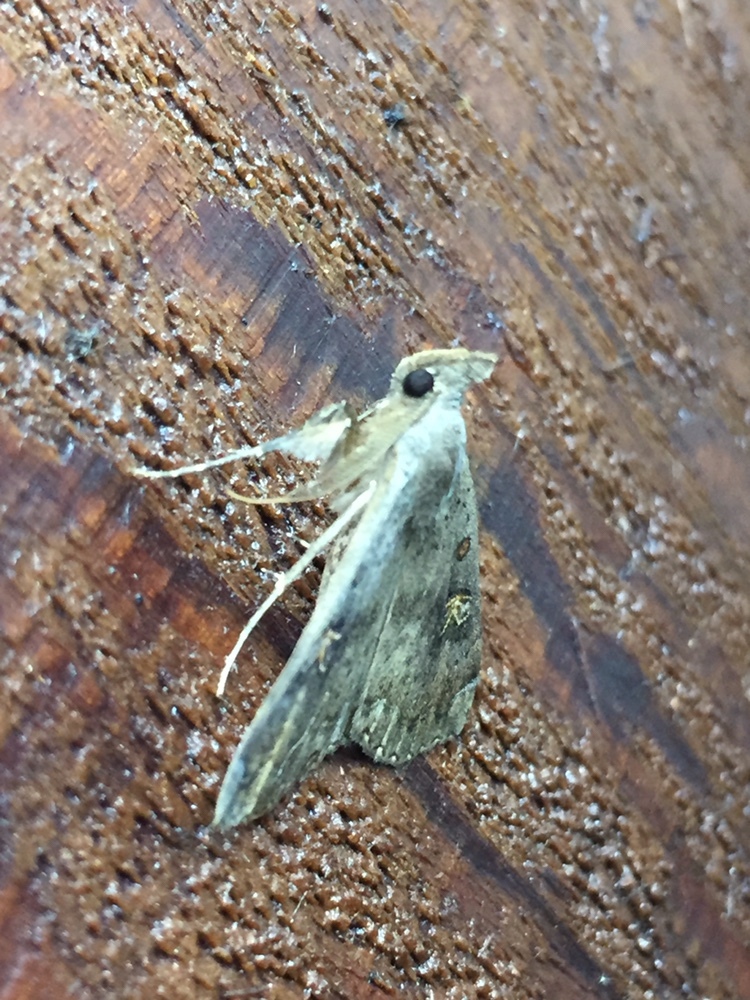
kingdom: Animalia
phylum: Arthropoda
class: Insecta
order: Lepidoptera
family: Erebidae
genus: Rhapsa
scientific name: Rhapsa scotosialis
